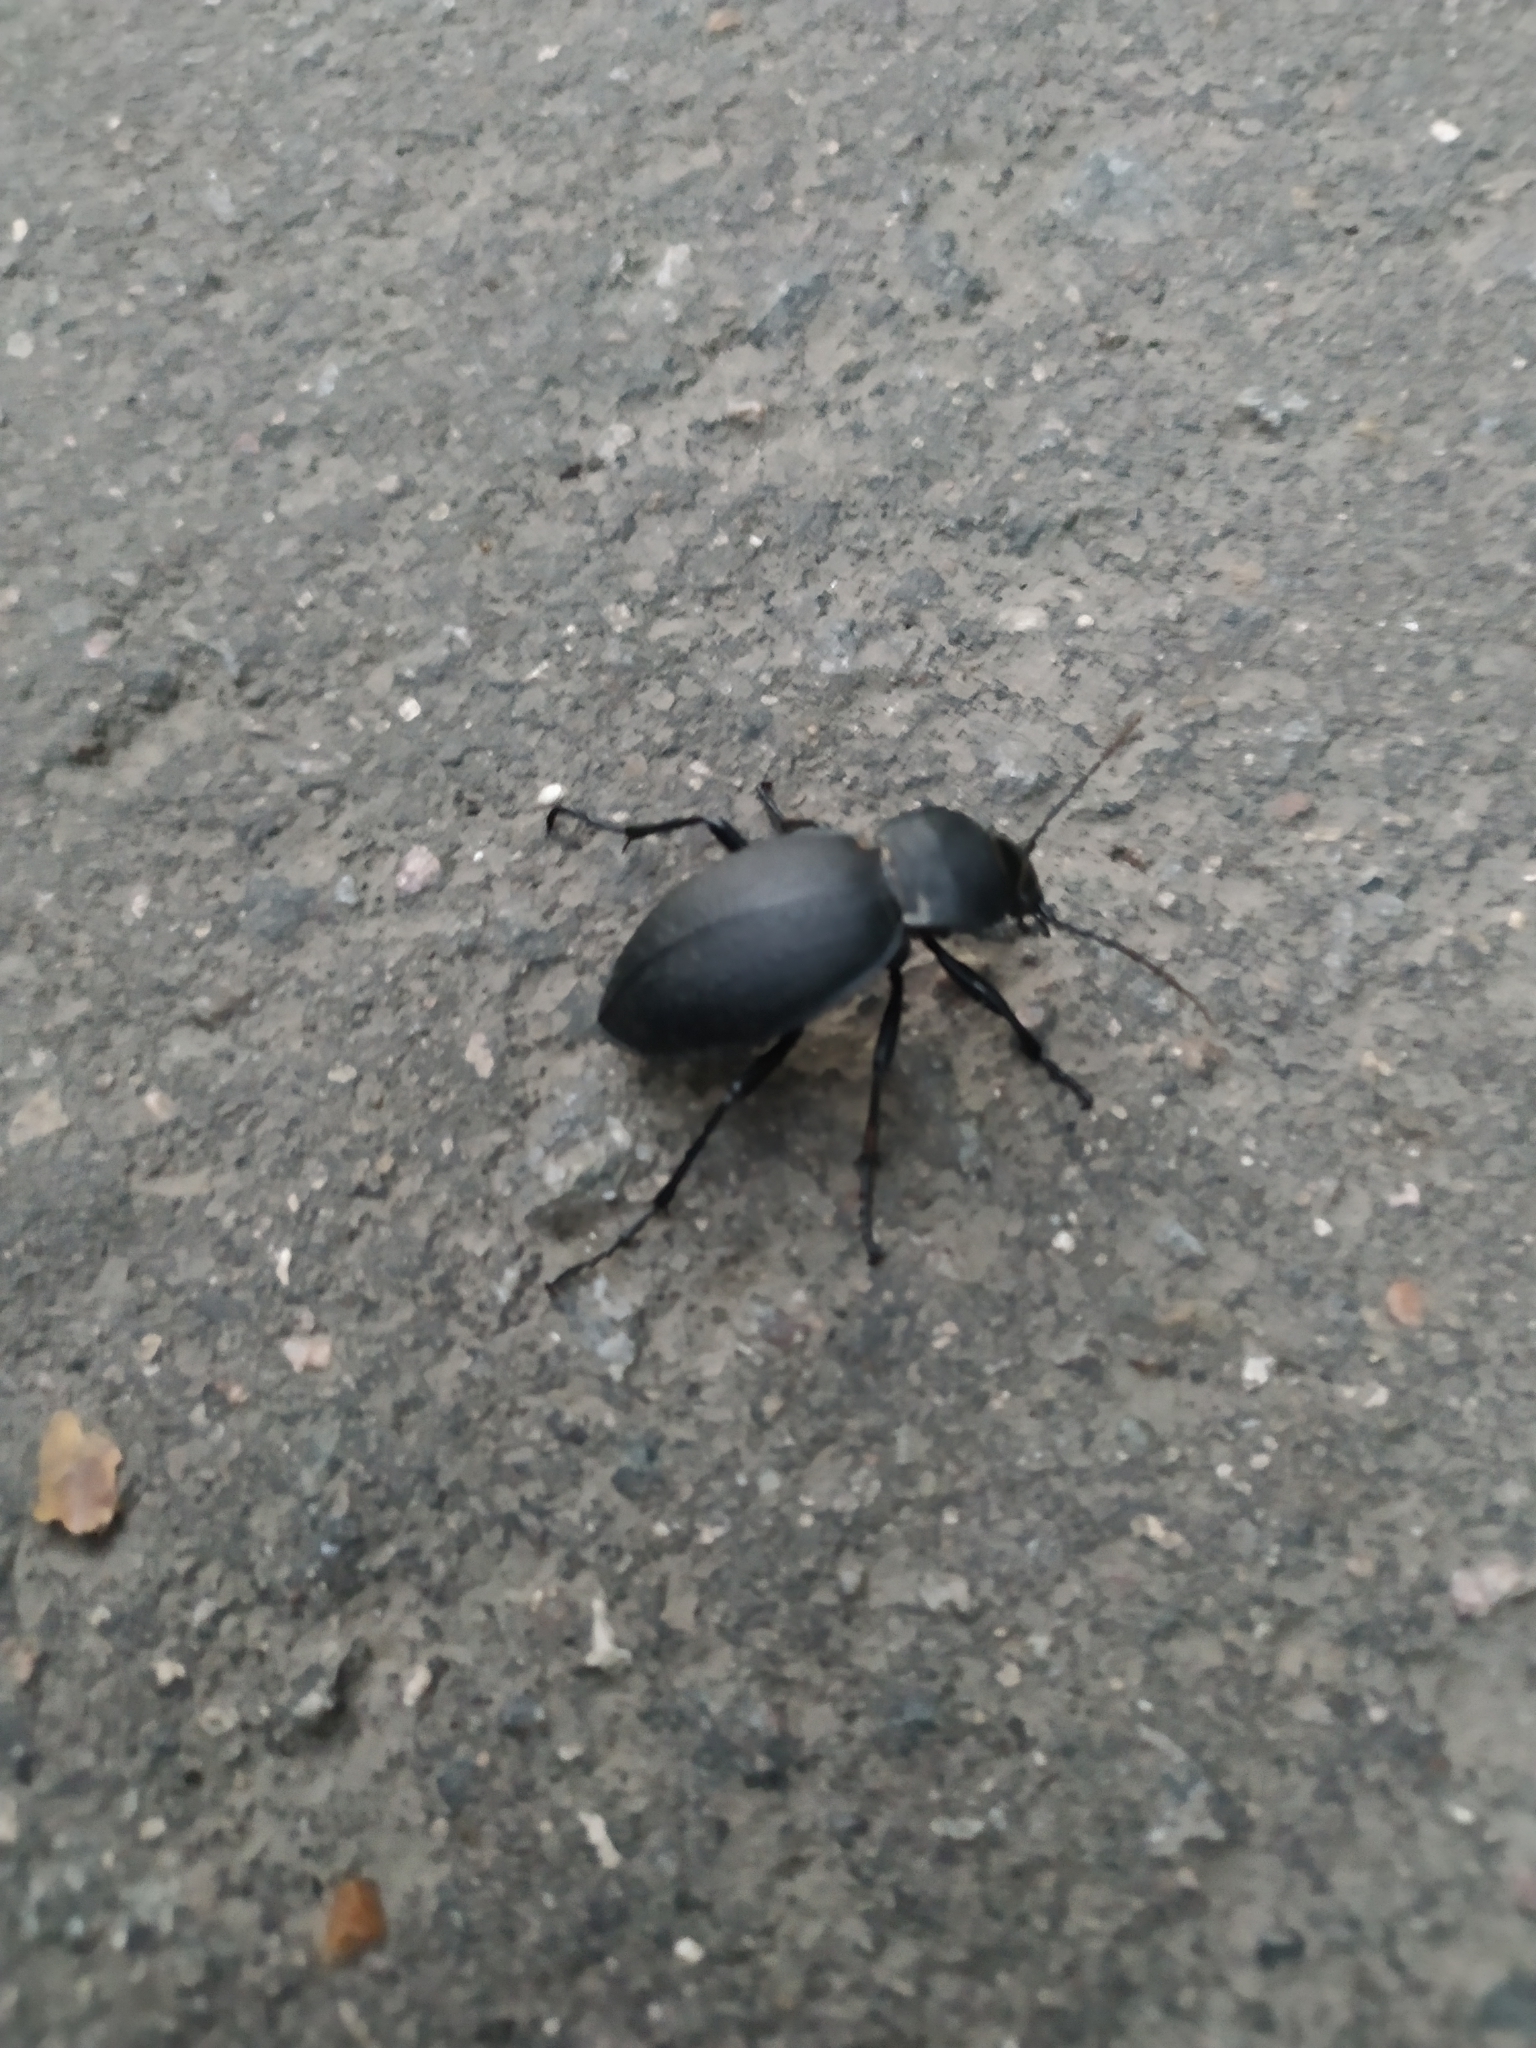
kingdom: Animalia
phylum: Arthropoda
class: Insecta
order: Coleoptera
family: Carabidae
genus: Carabus
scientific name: Carabus coriaceus
